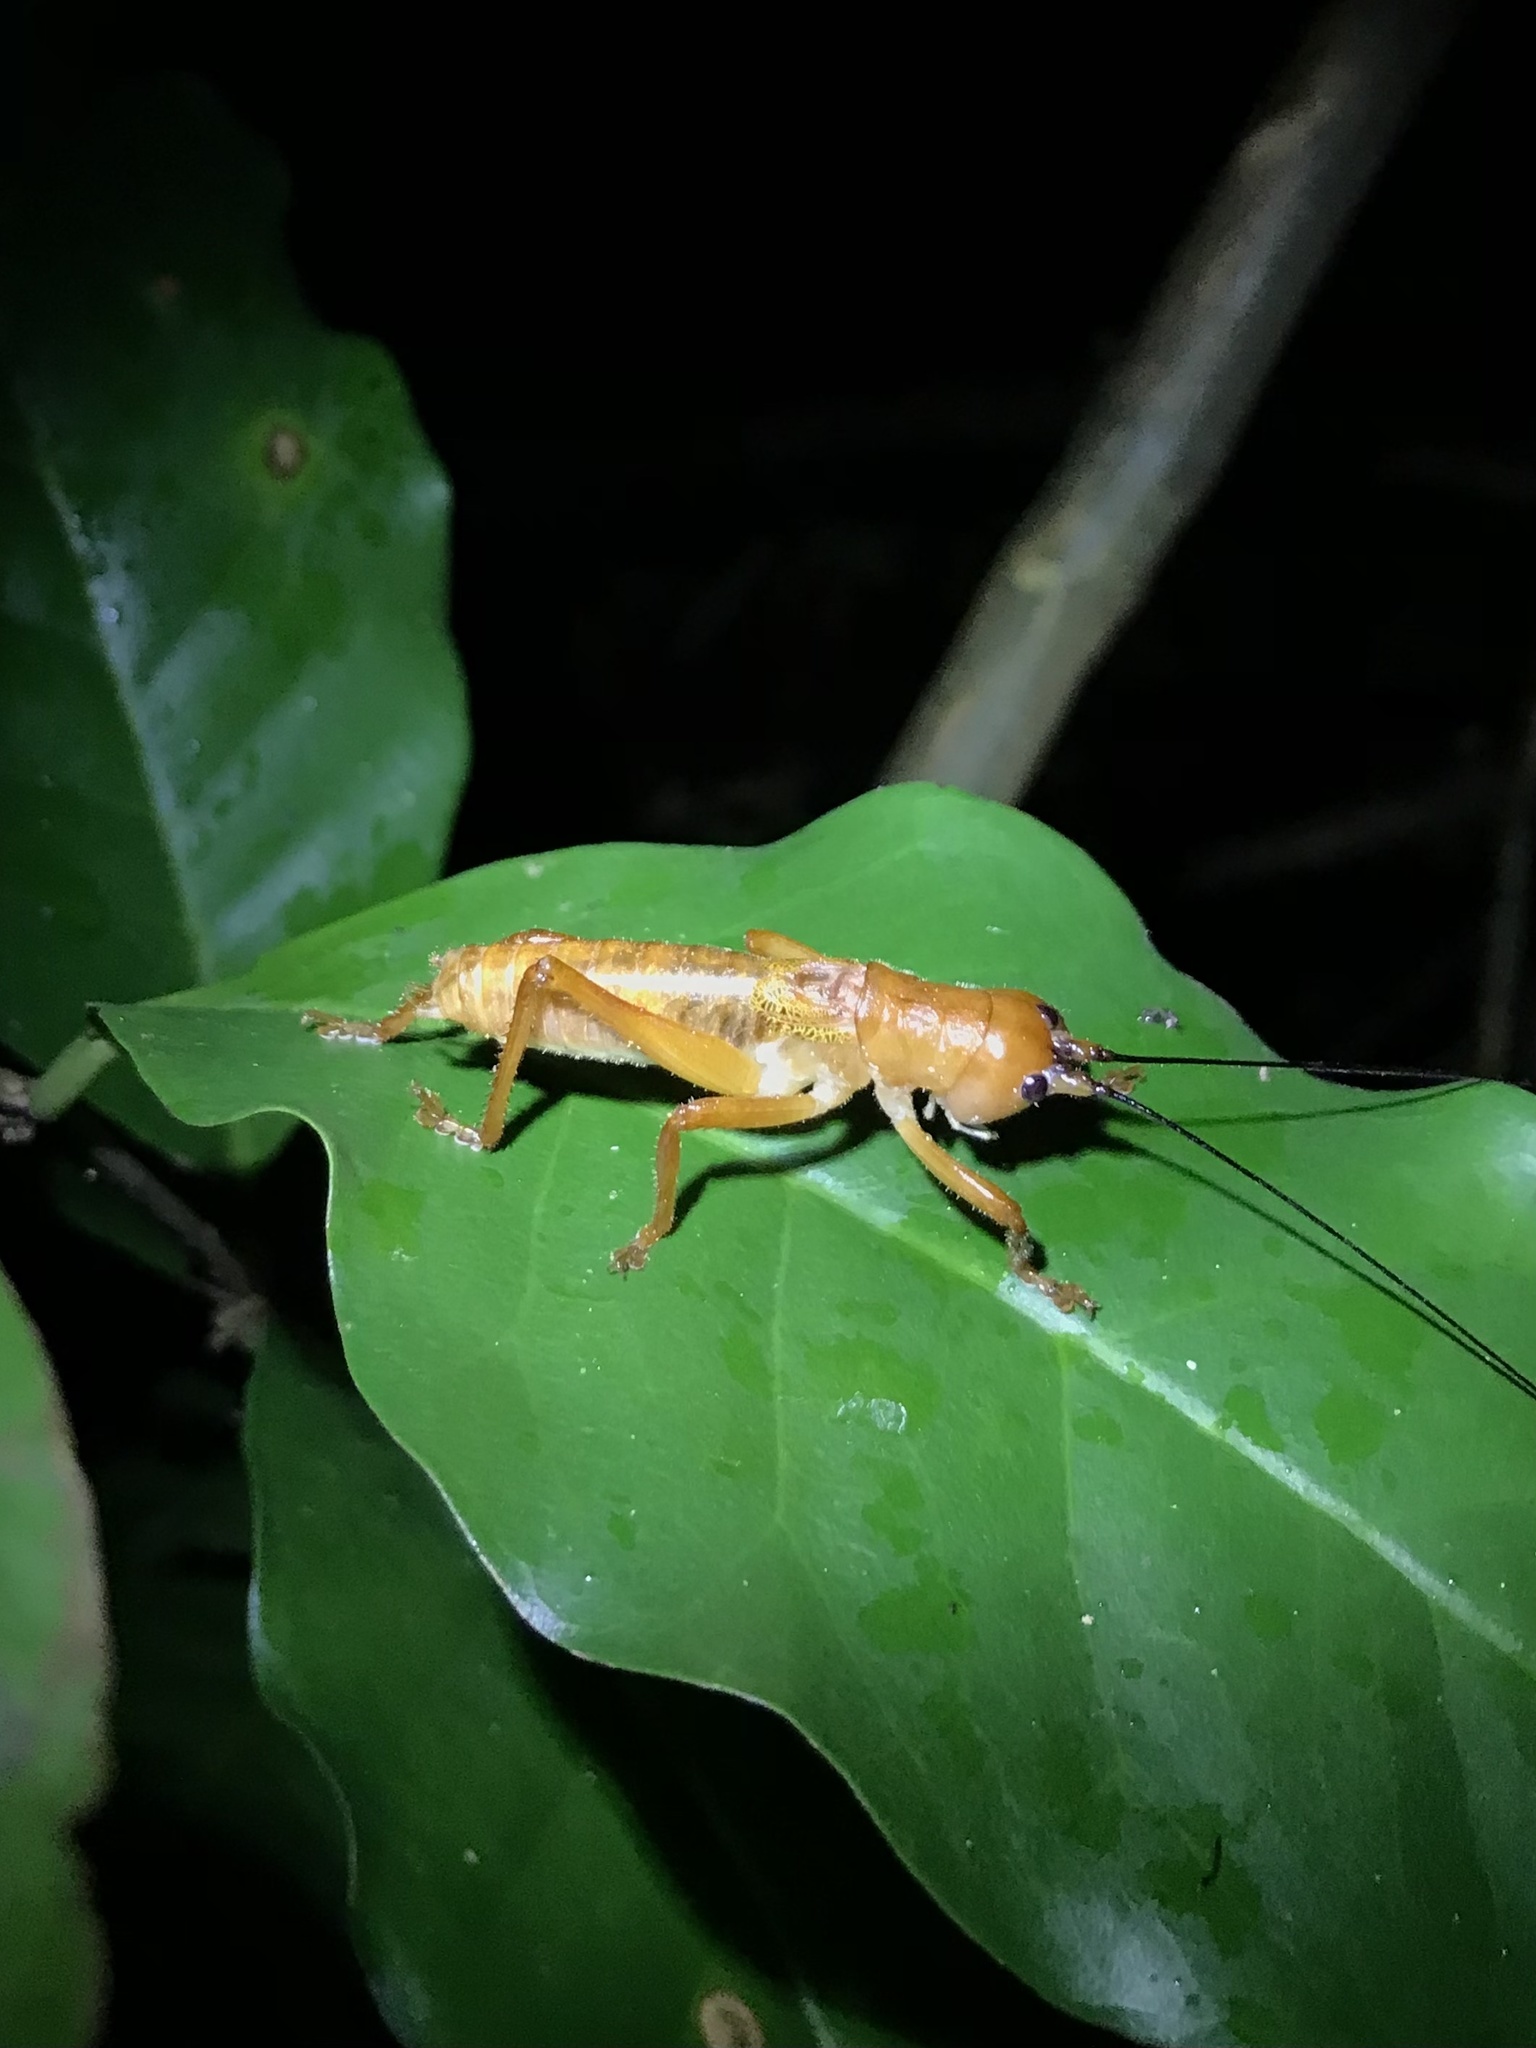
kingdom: Animalia
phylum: Arthropoda
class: Insecta
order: Orthoptera
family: Tettigoniidae
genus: Melanonotus
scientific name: Melanonotus powellorum
